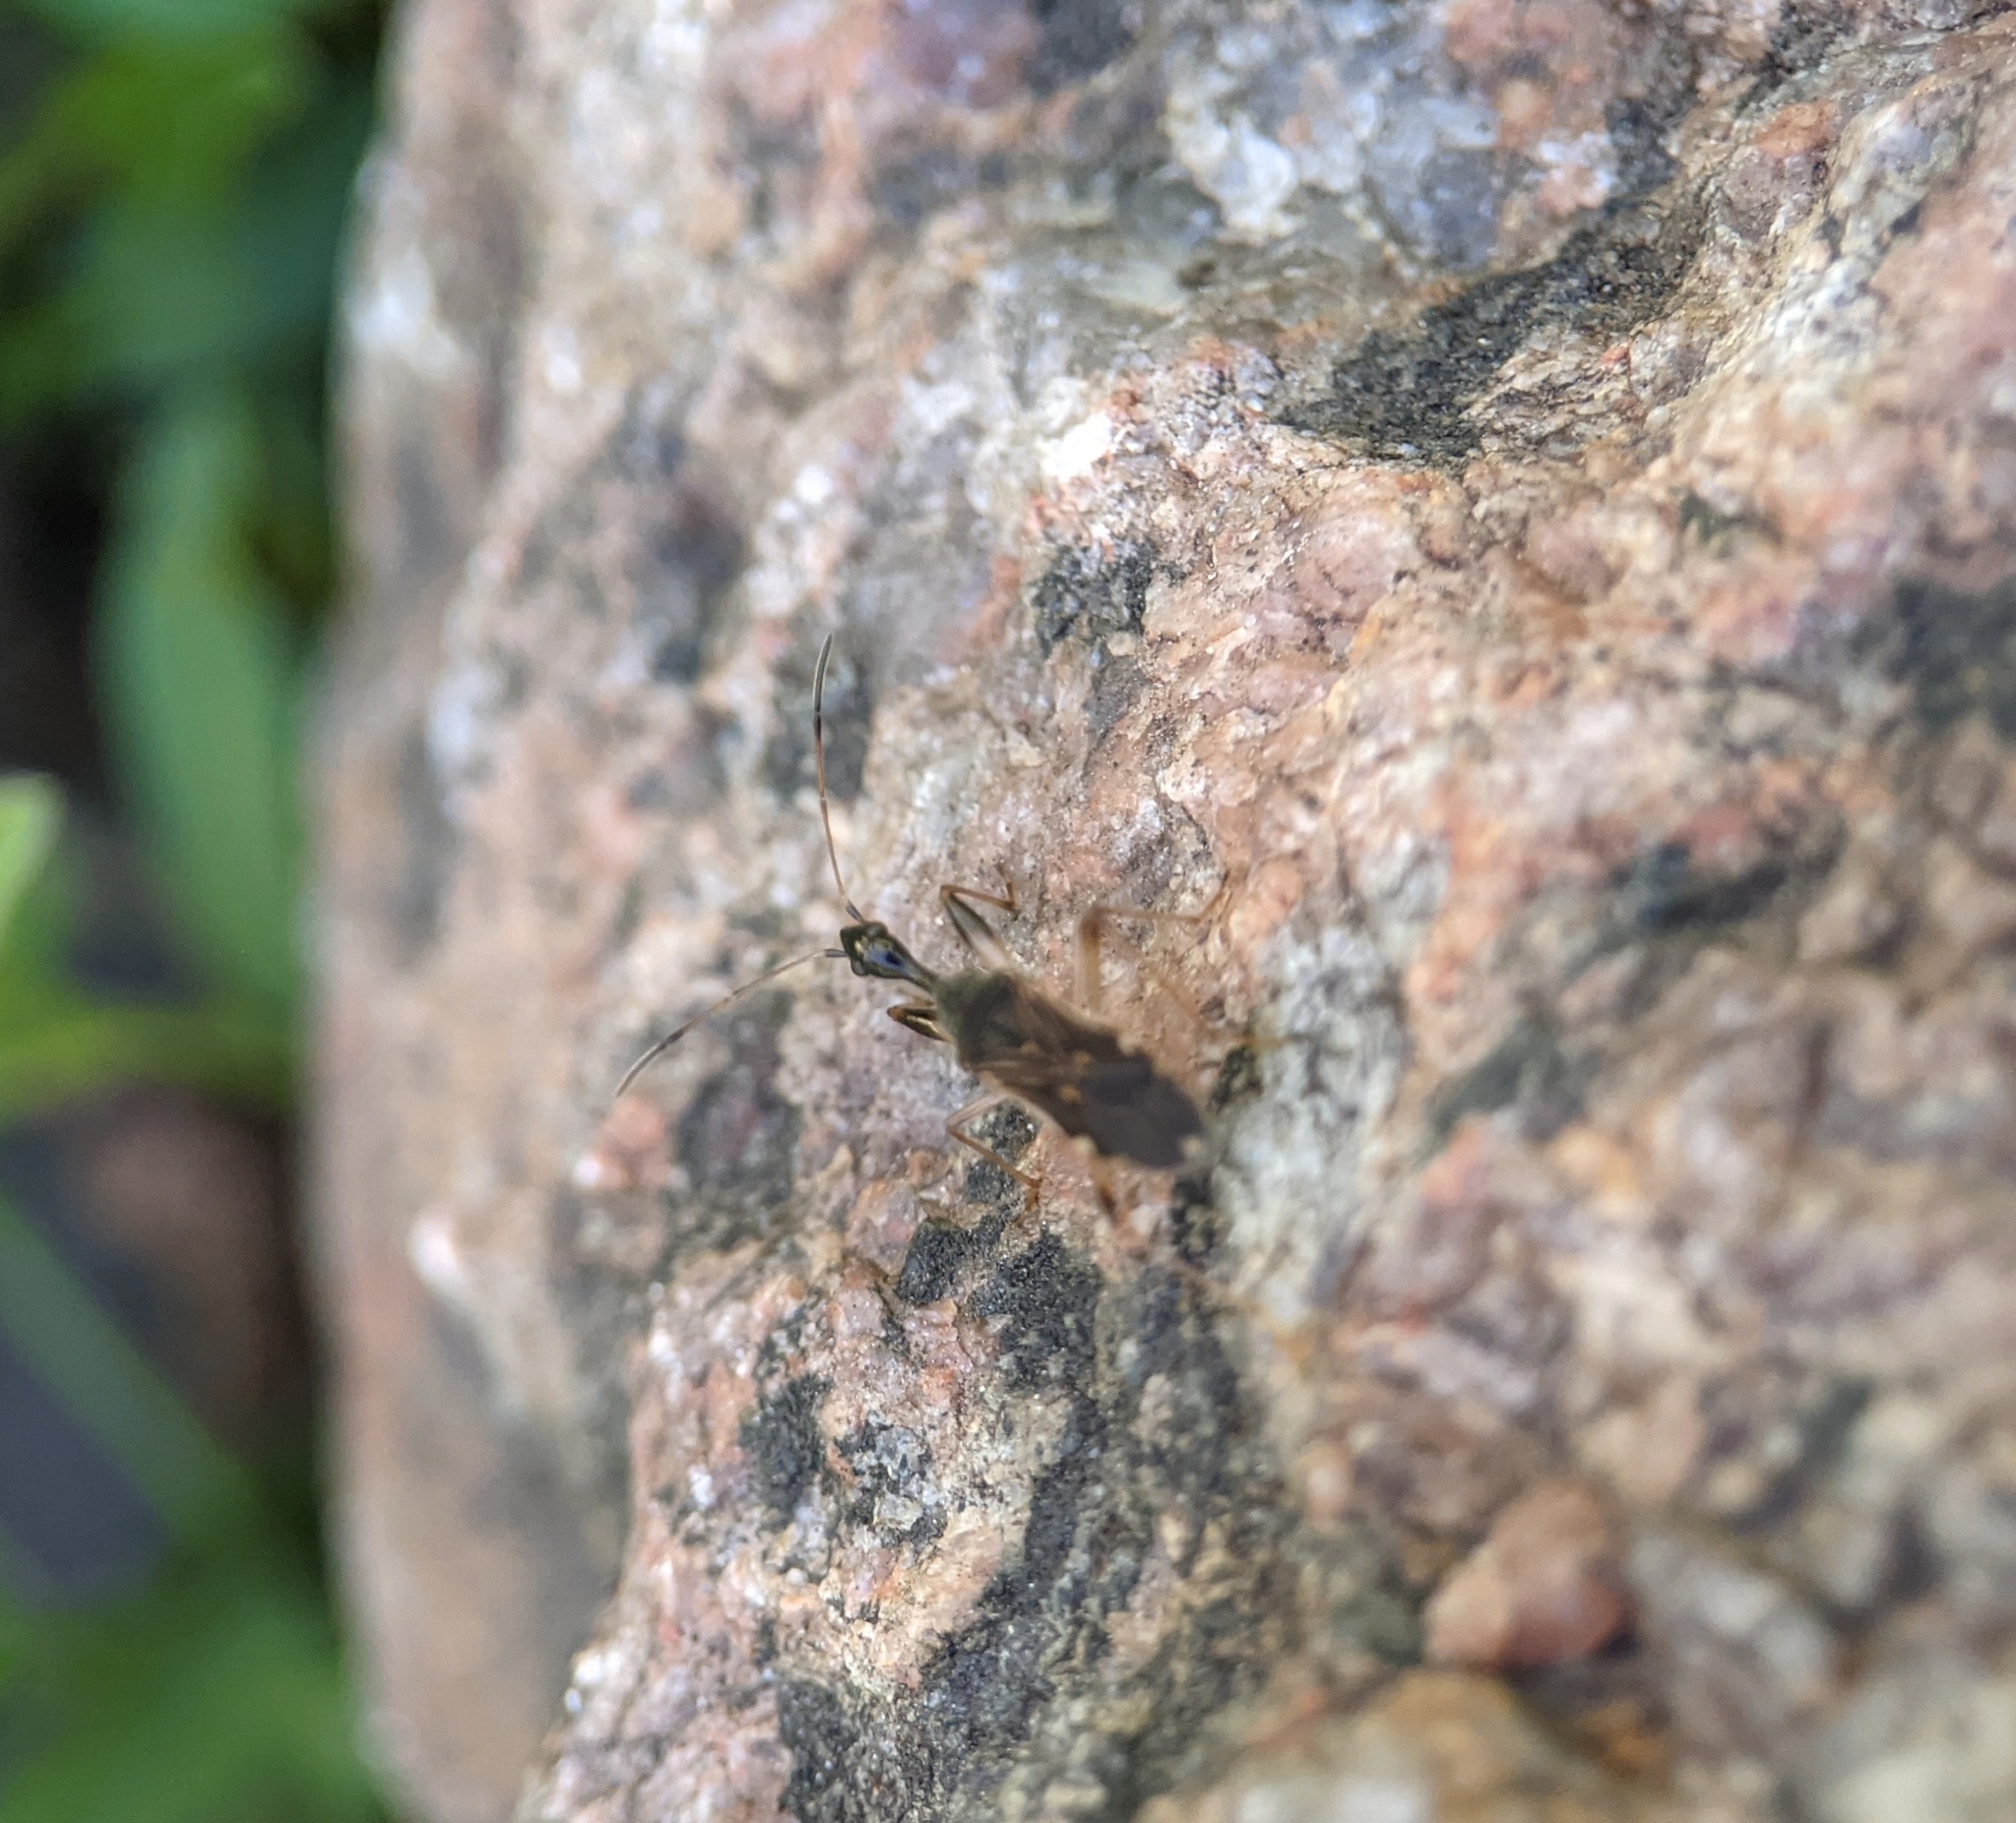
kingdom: Animalia
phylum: Arthropoda
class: Insecta
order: Hemiptera
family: Rhyparochromidae
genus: Myodocha
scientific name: Myodocha serripes
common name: Long-necked seed bug
